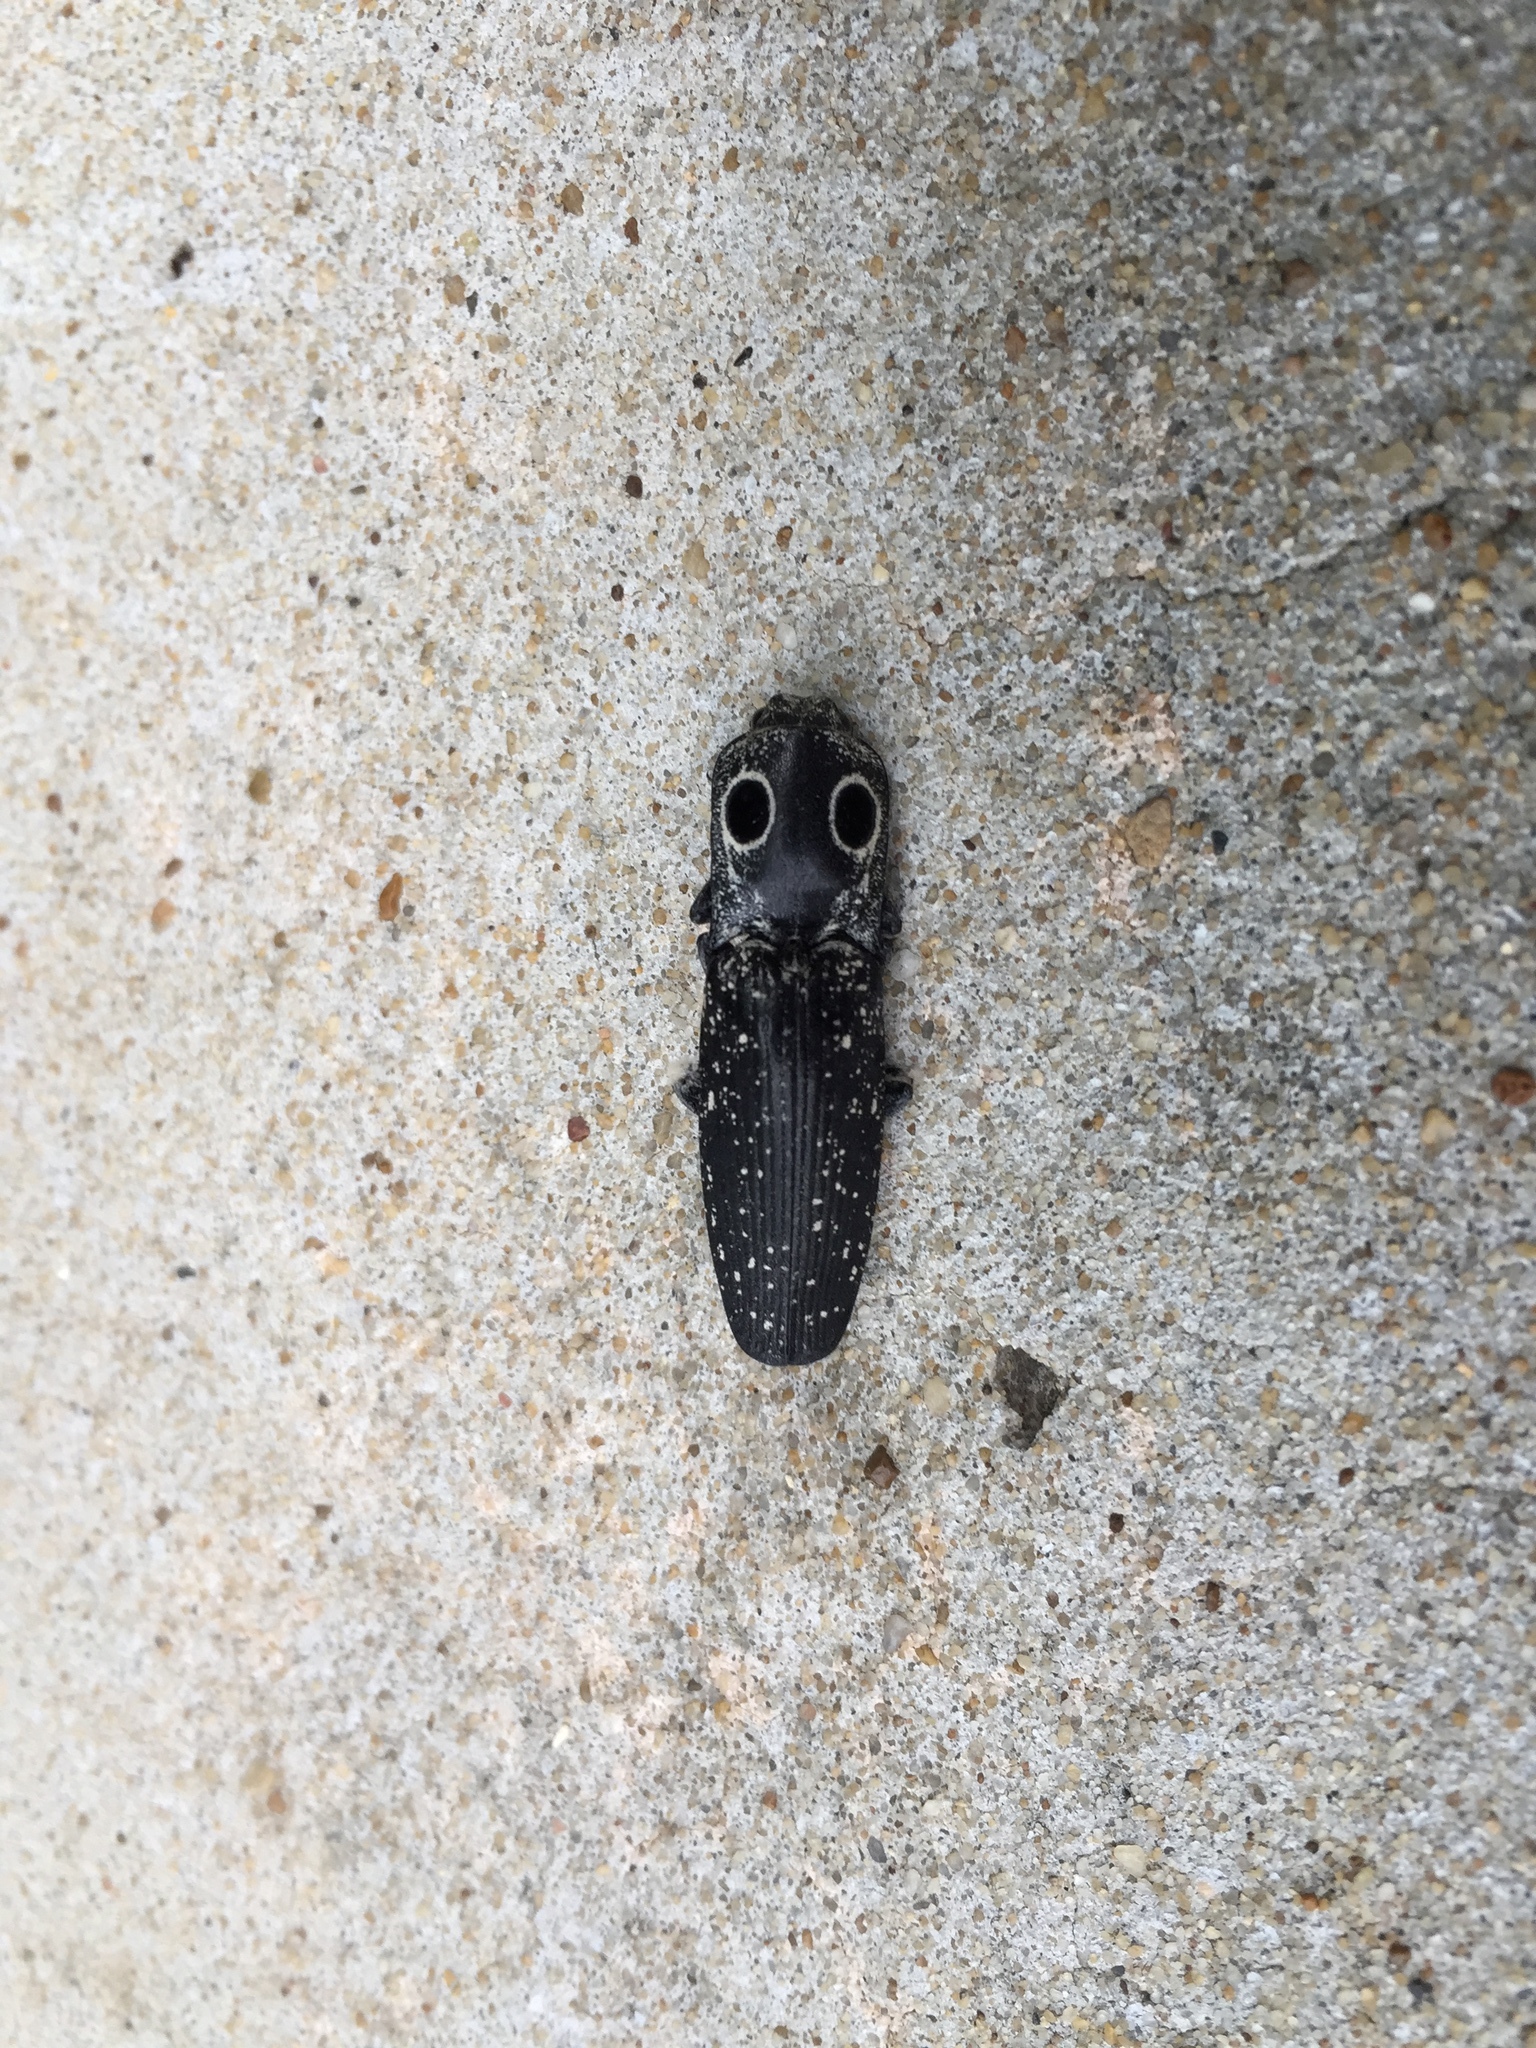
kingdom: Animalia
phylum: Arthropoda
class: Insecta
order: Coleoptera
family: Elateridae
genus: Alaus
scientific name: Alaus oculatus
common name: Eastern eyed click beetle
